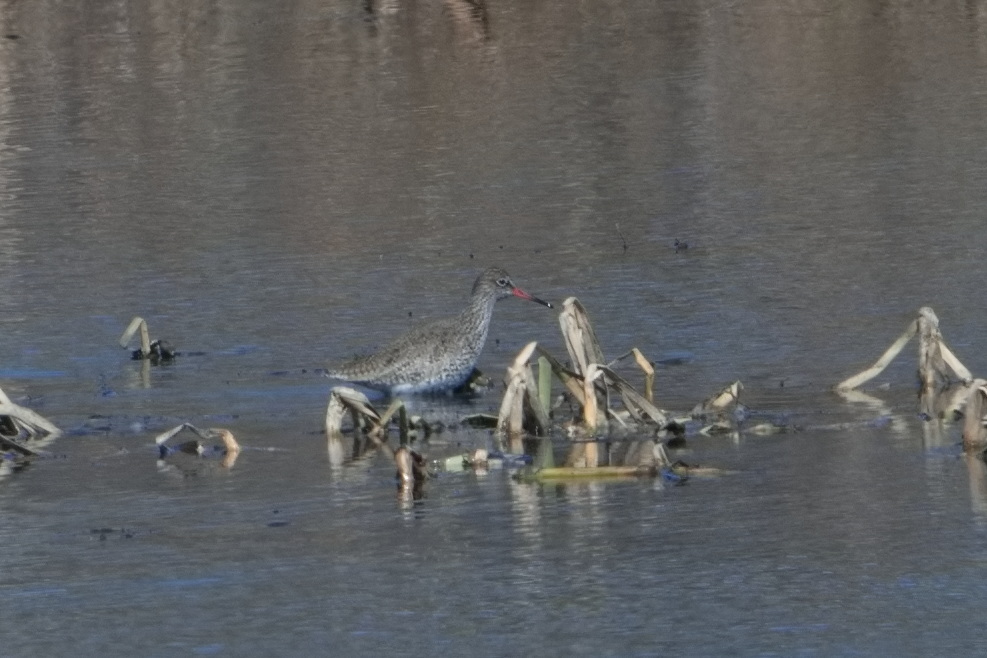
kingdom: Animalia
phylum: Chordata
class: Aves
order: Charadriiformes
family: Scolopacidae
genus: Tringa
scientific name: Tringa totanus
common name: Common redshank
